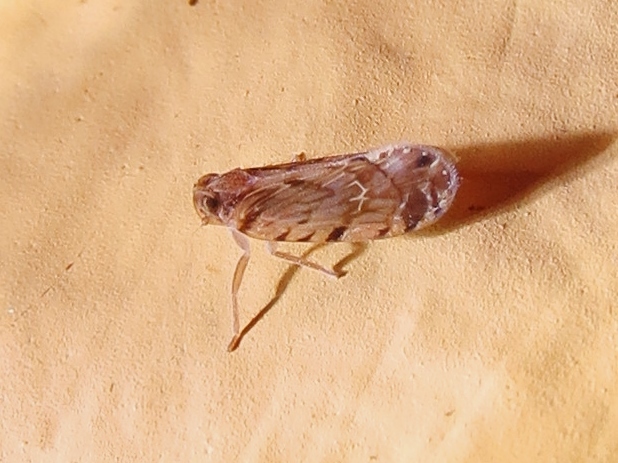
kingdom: Animalia
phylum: Arthropoda
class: Insecta
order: Hemiptera
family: Cixiidae
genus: Pintalia
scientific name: Pintalia alta
